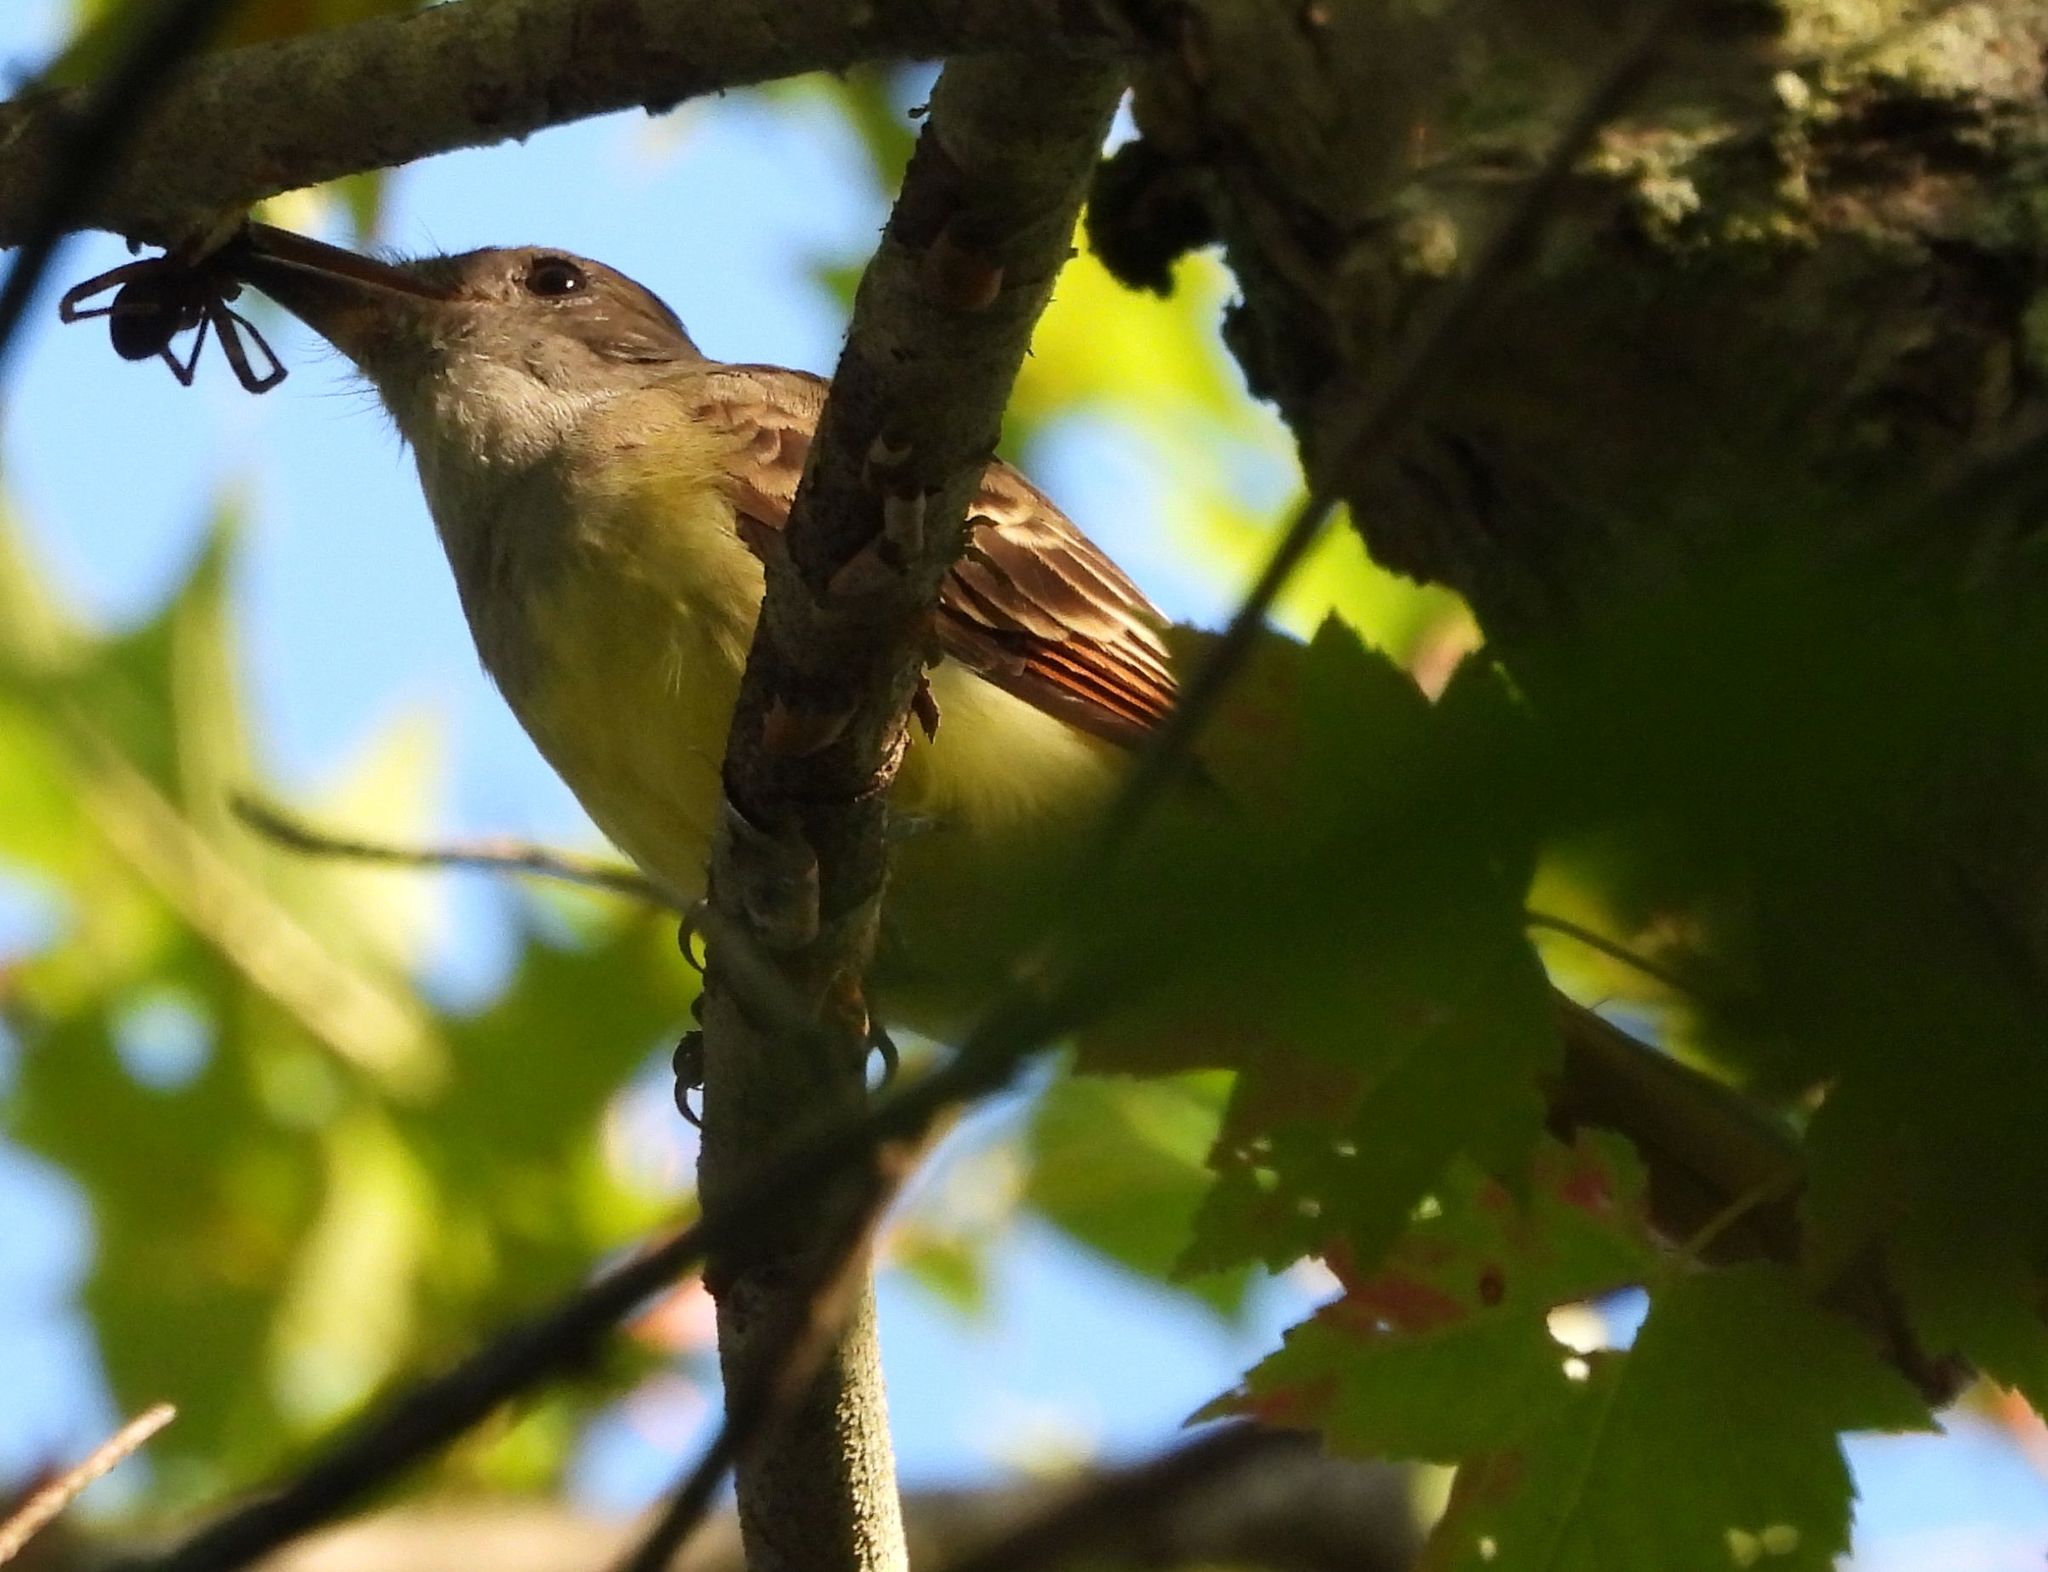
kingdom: Animalia
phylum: Chordata
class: Aves
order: Passeriformes
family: Tyrannidae
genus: Myiarchus
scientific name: Myiarchus crinitus
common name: Great crested flycatcher
